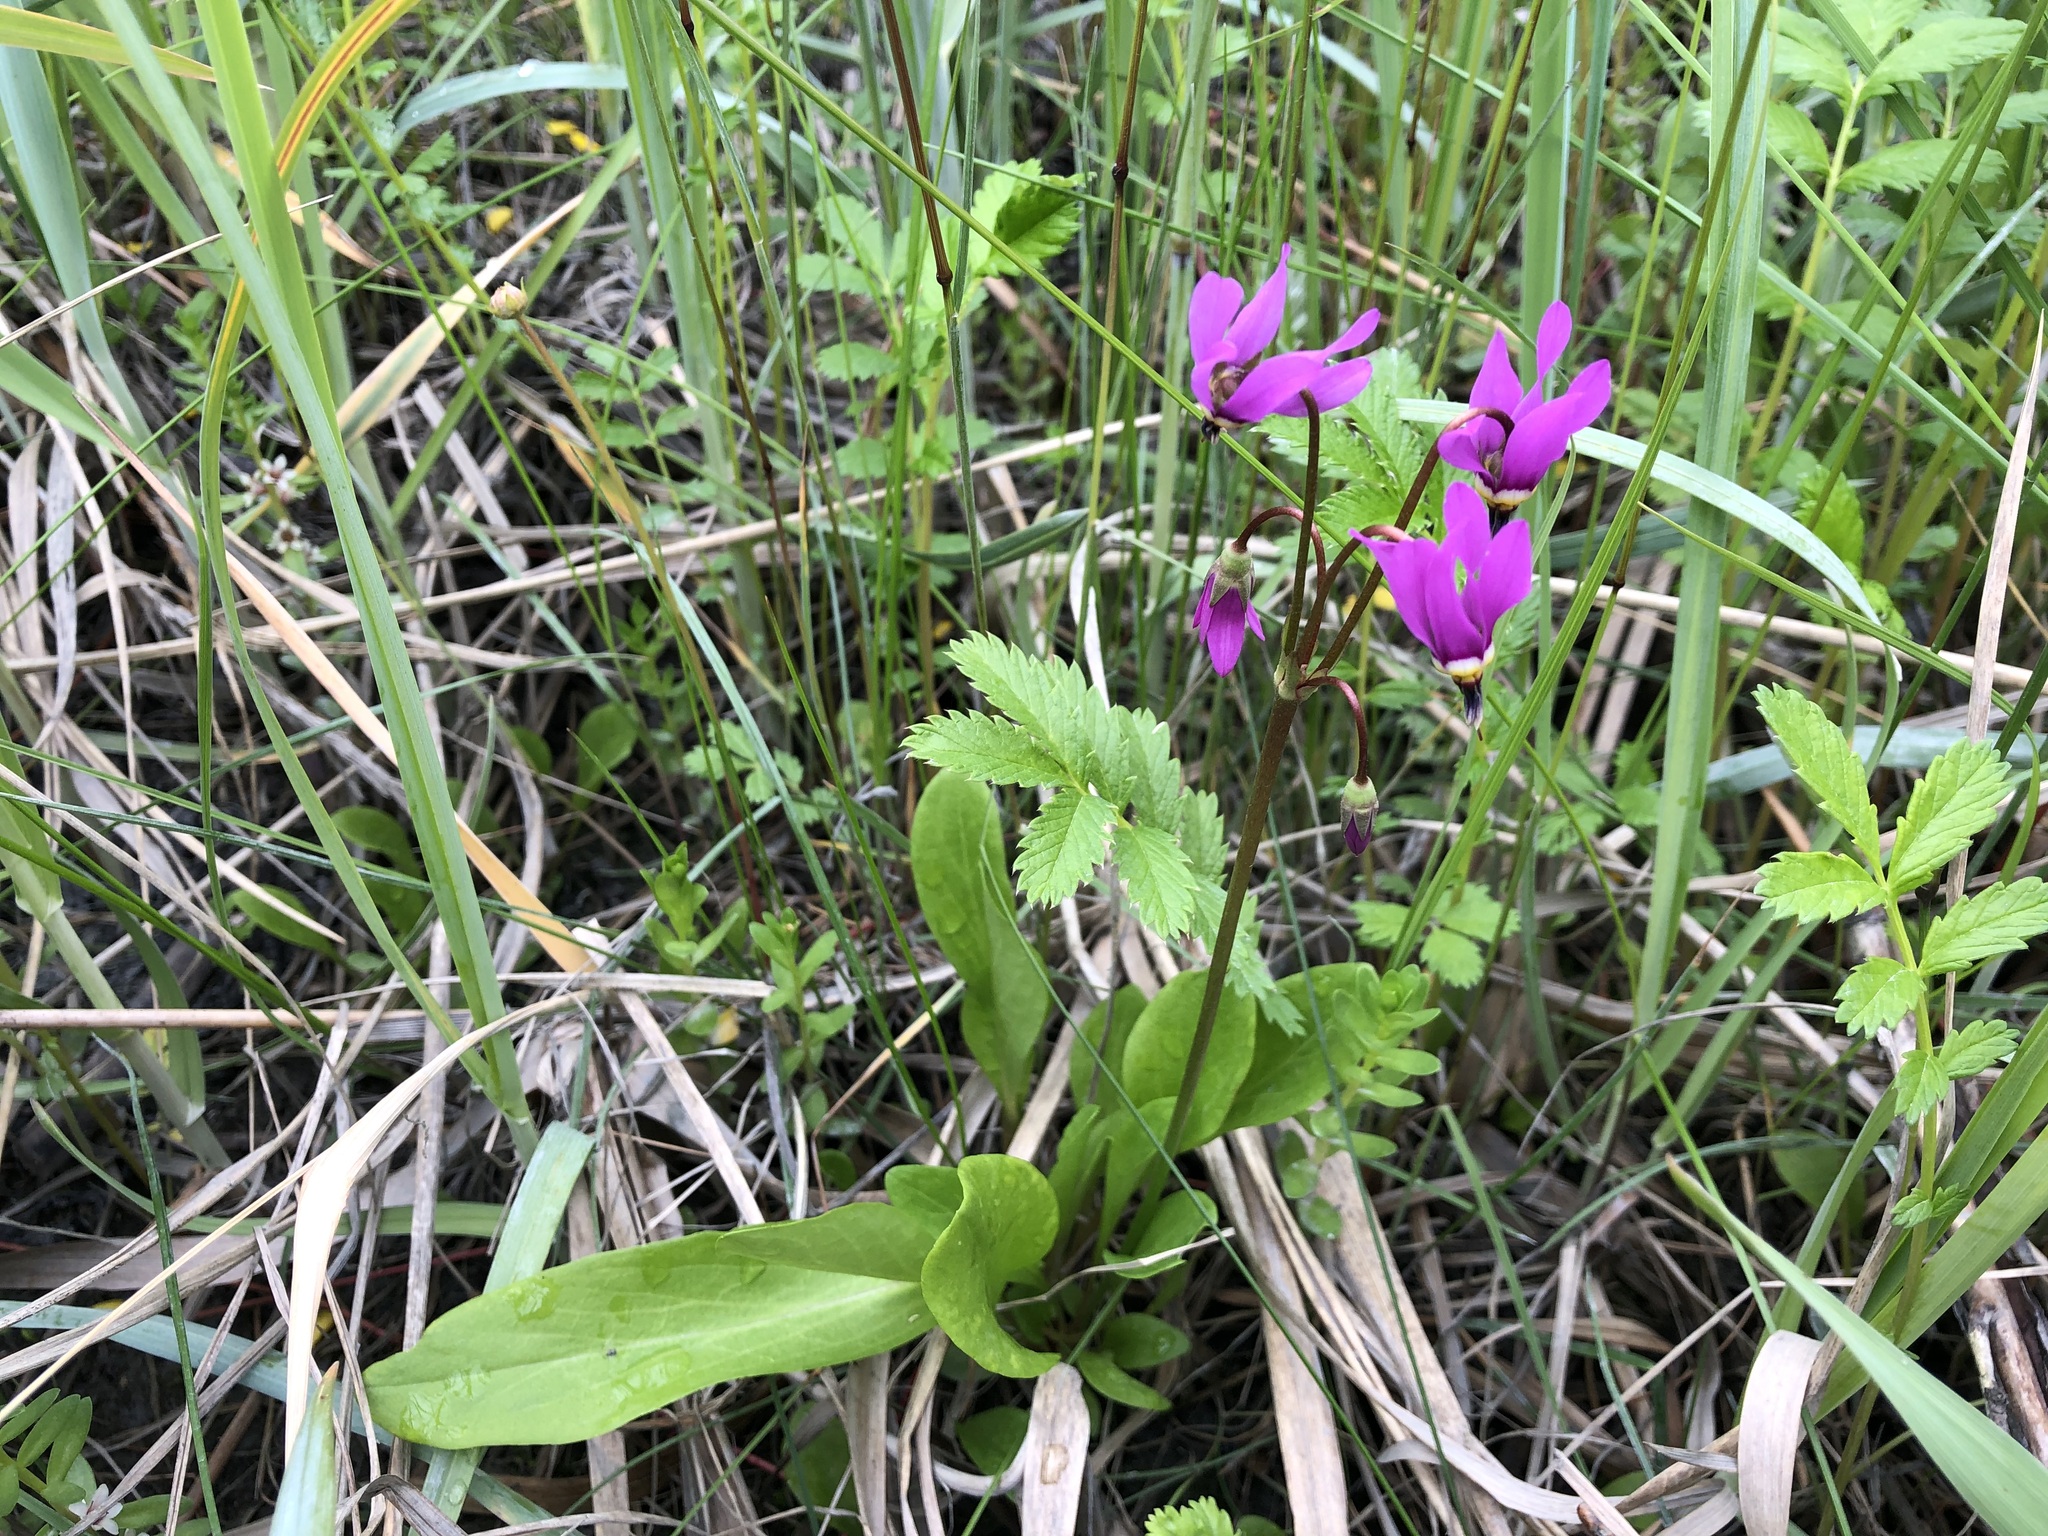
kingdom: Plantae
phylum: Tracheophyta
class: Magnoliopsida
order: Ericales
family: Primulaceae
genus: Dodecatheon
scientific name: Dodecatheon pulchellum
